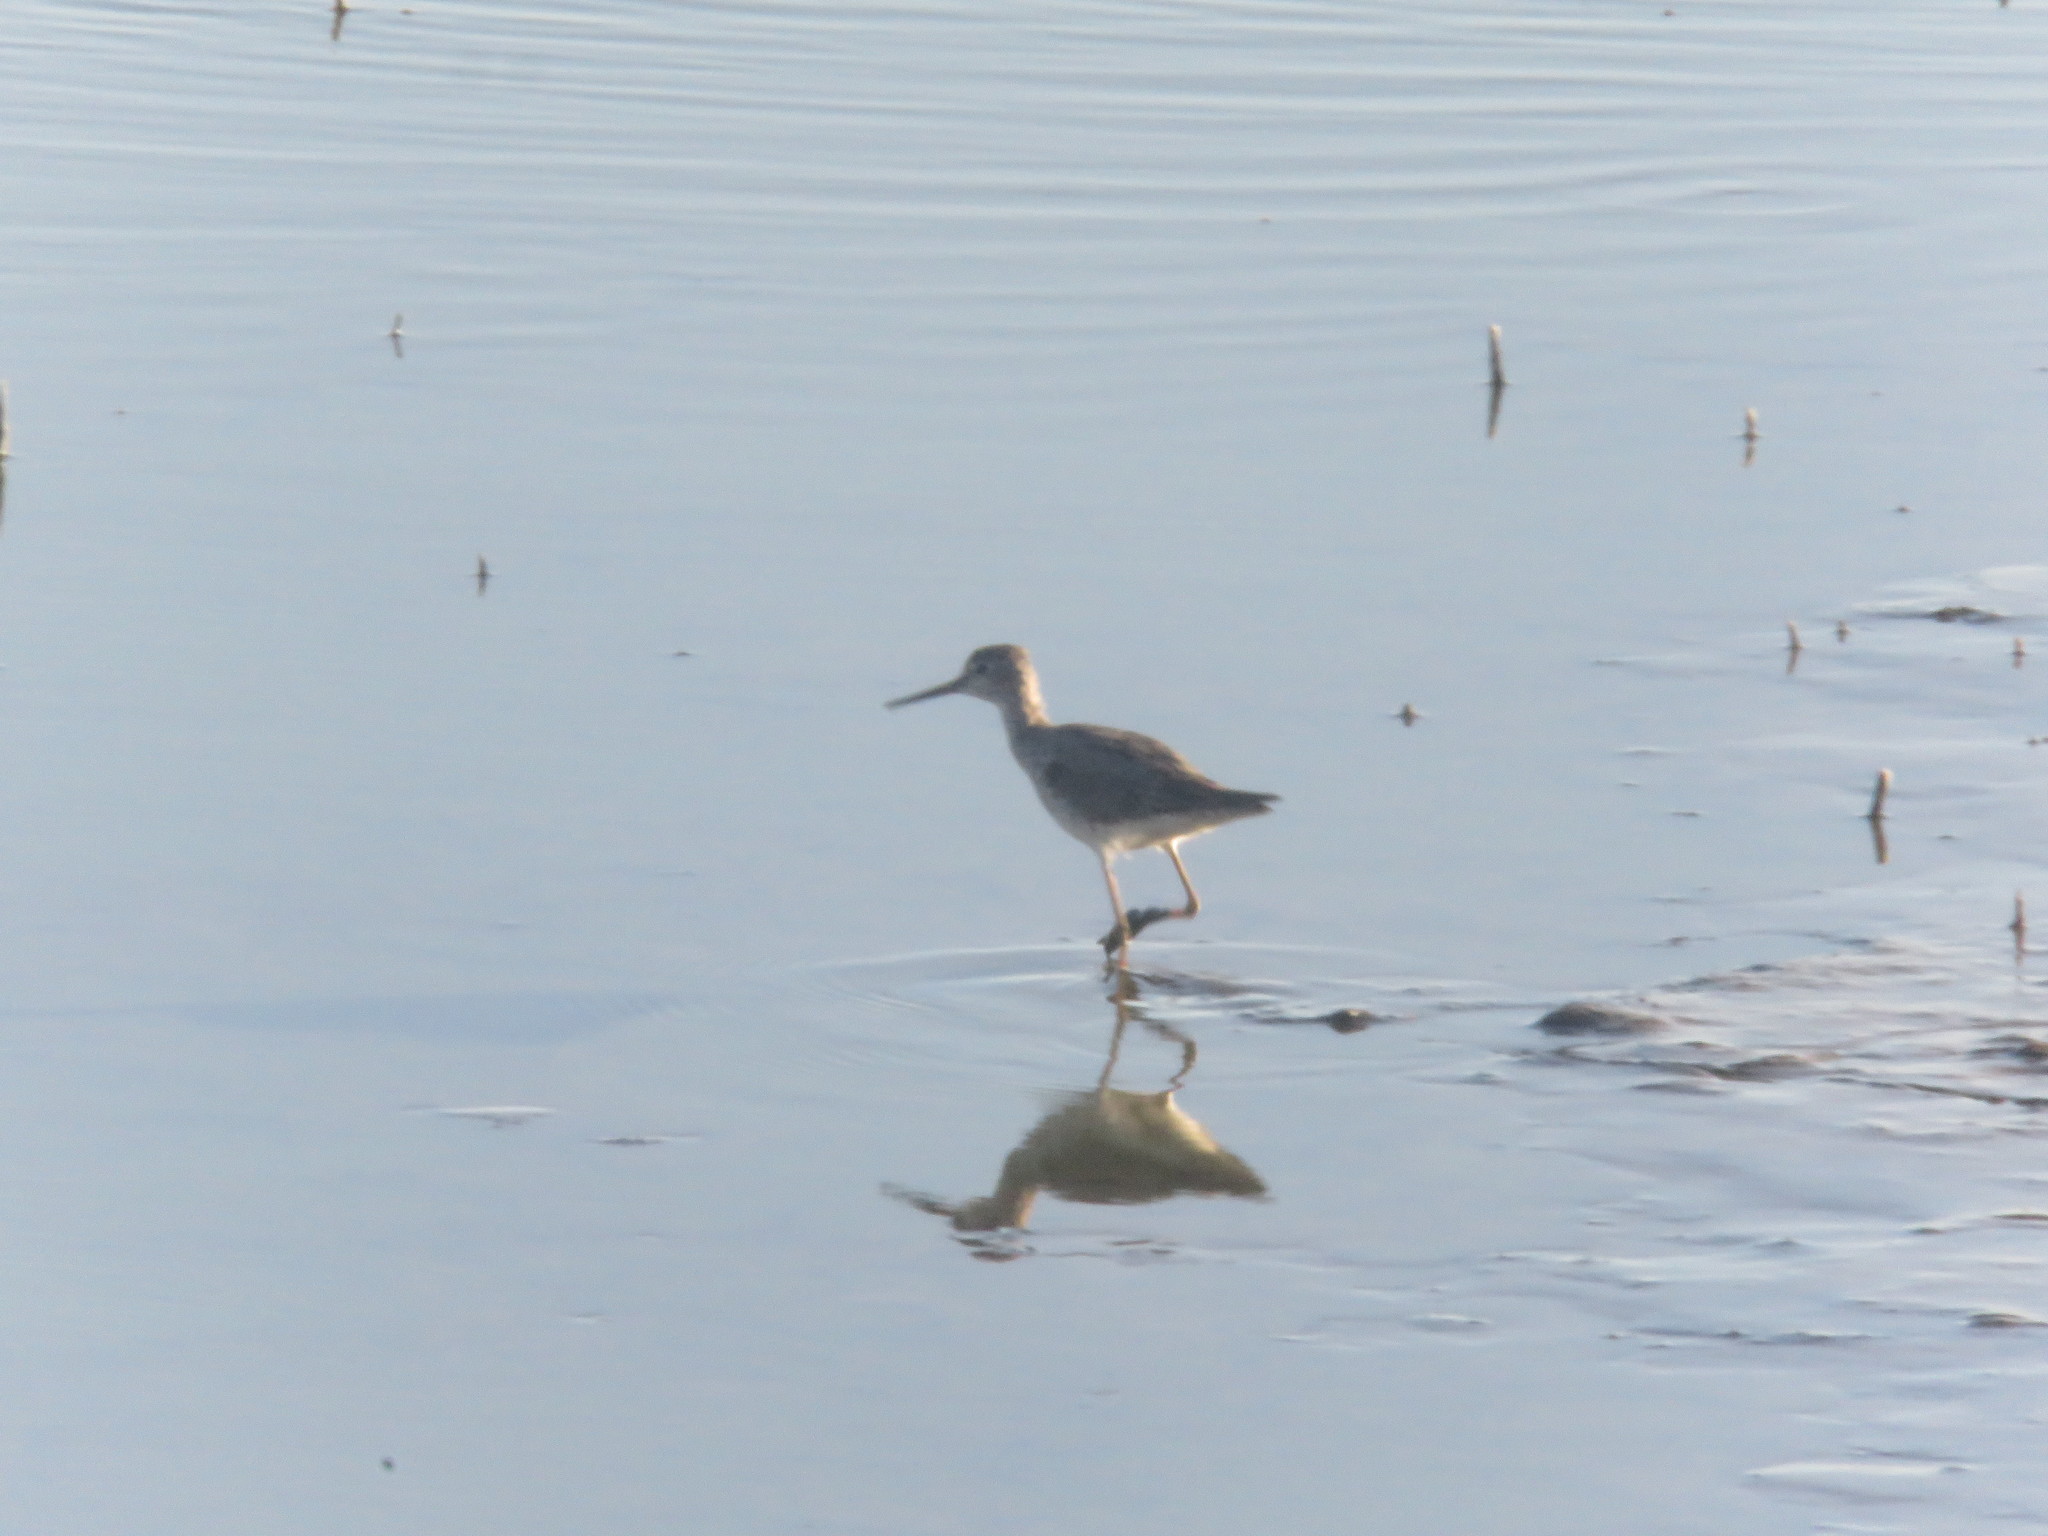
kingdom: Animalia
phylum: Chordata
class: Aves
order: Charadriiformes
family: Scolopacidae
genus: Tringa
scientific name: Tringa melanoleuca
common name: Greater yellowlegs
